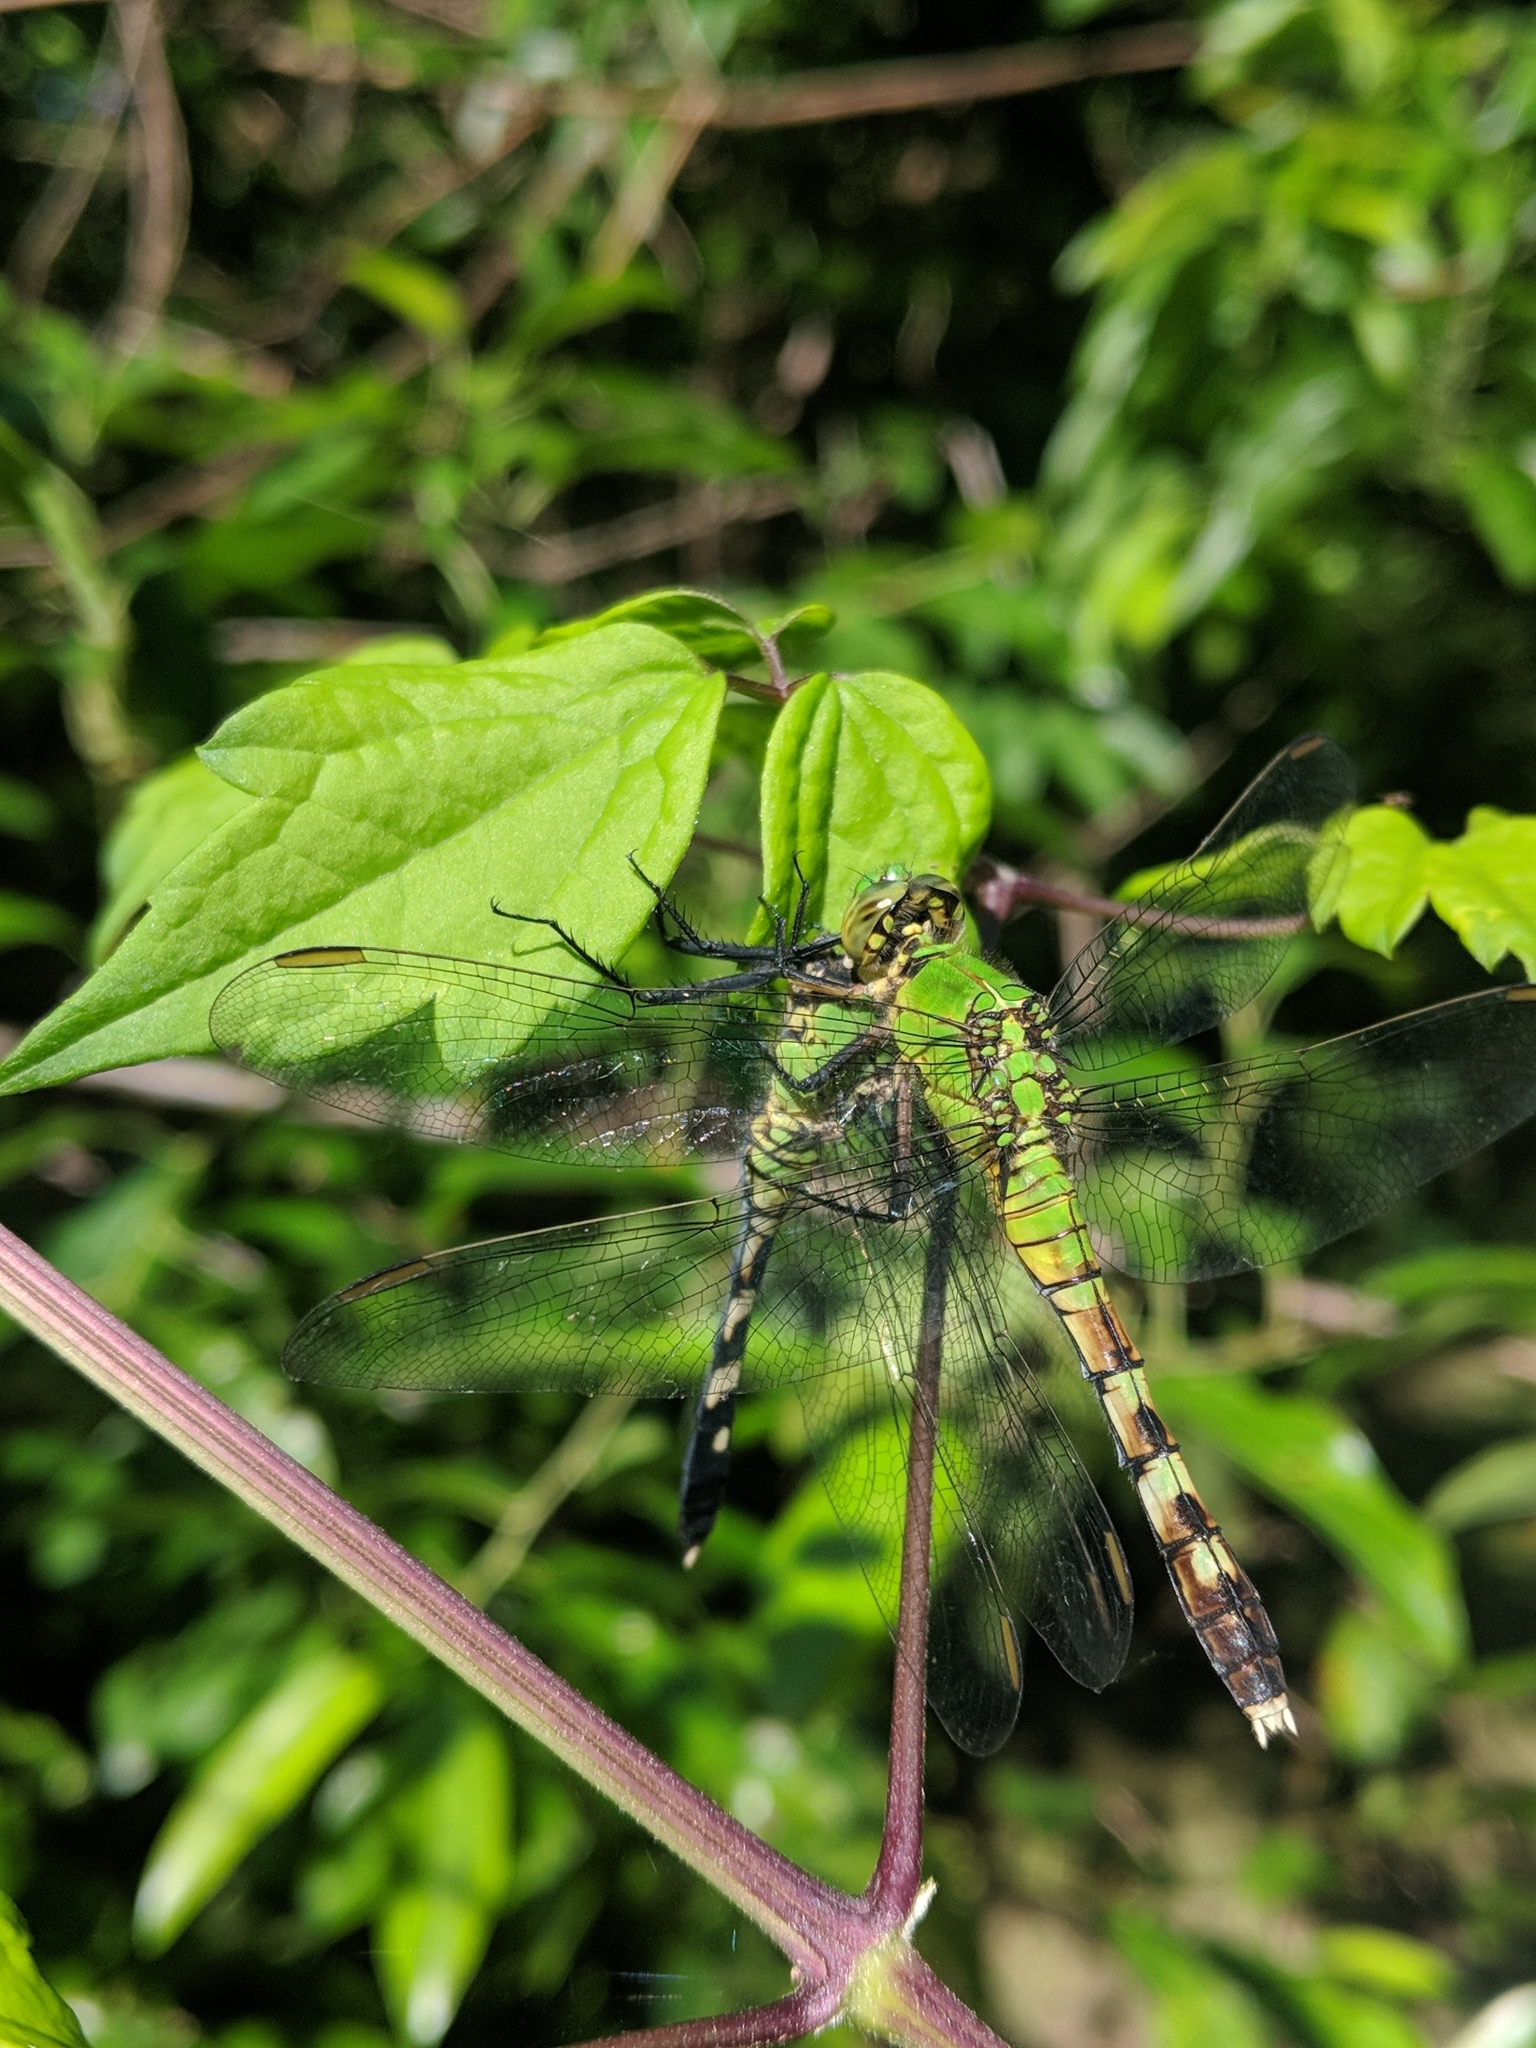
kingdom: Animalia
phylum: Arthropoda
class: Insecta
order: Odonata
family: Libellulidae
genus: Erythemis
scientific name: Erythemis simplicicollis
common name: Eastern pondhawk
